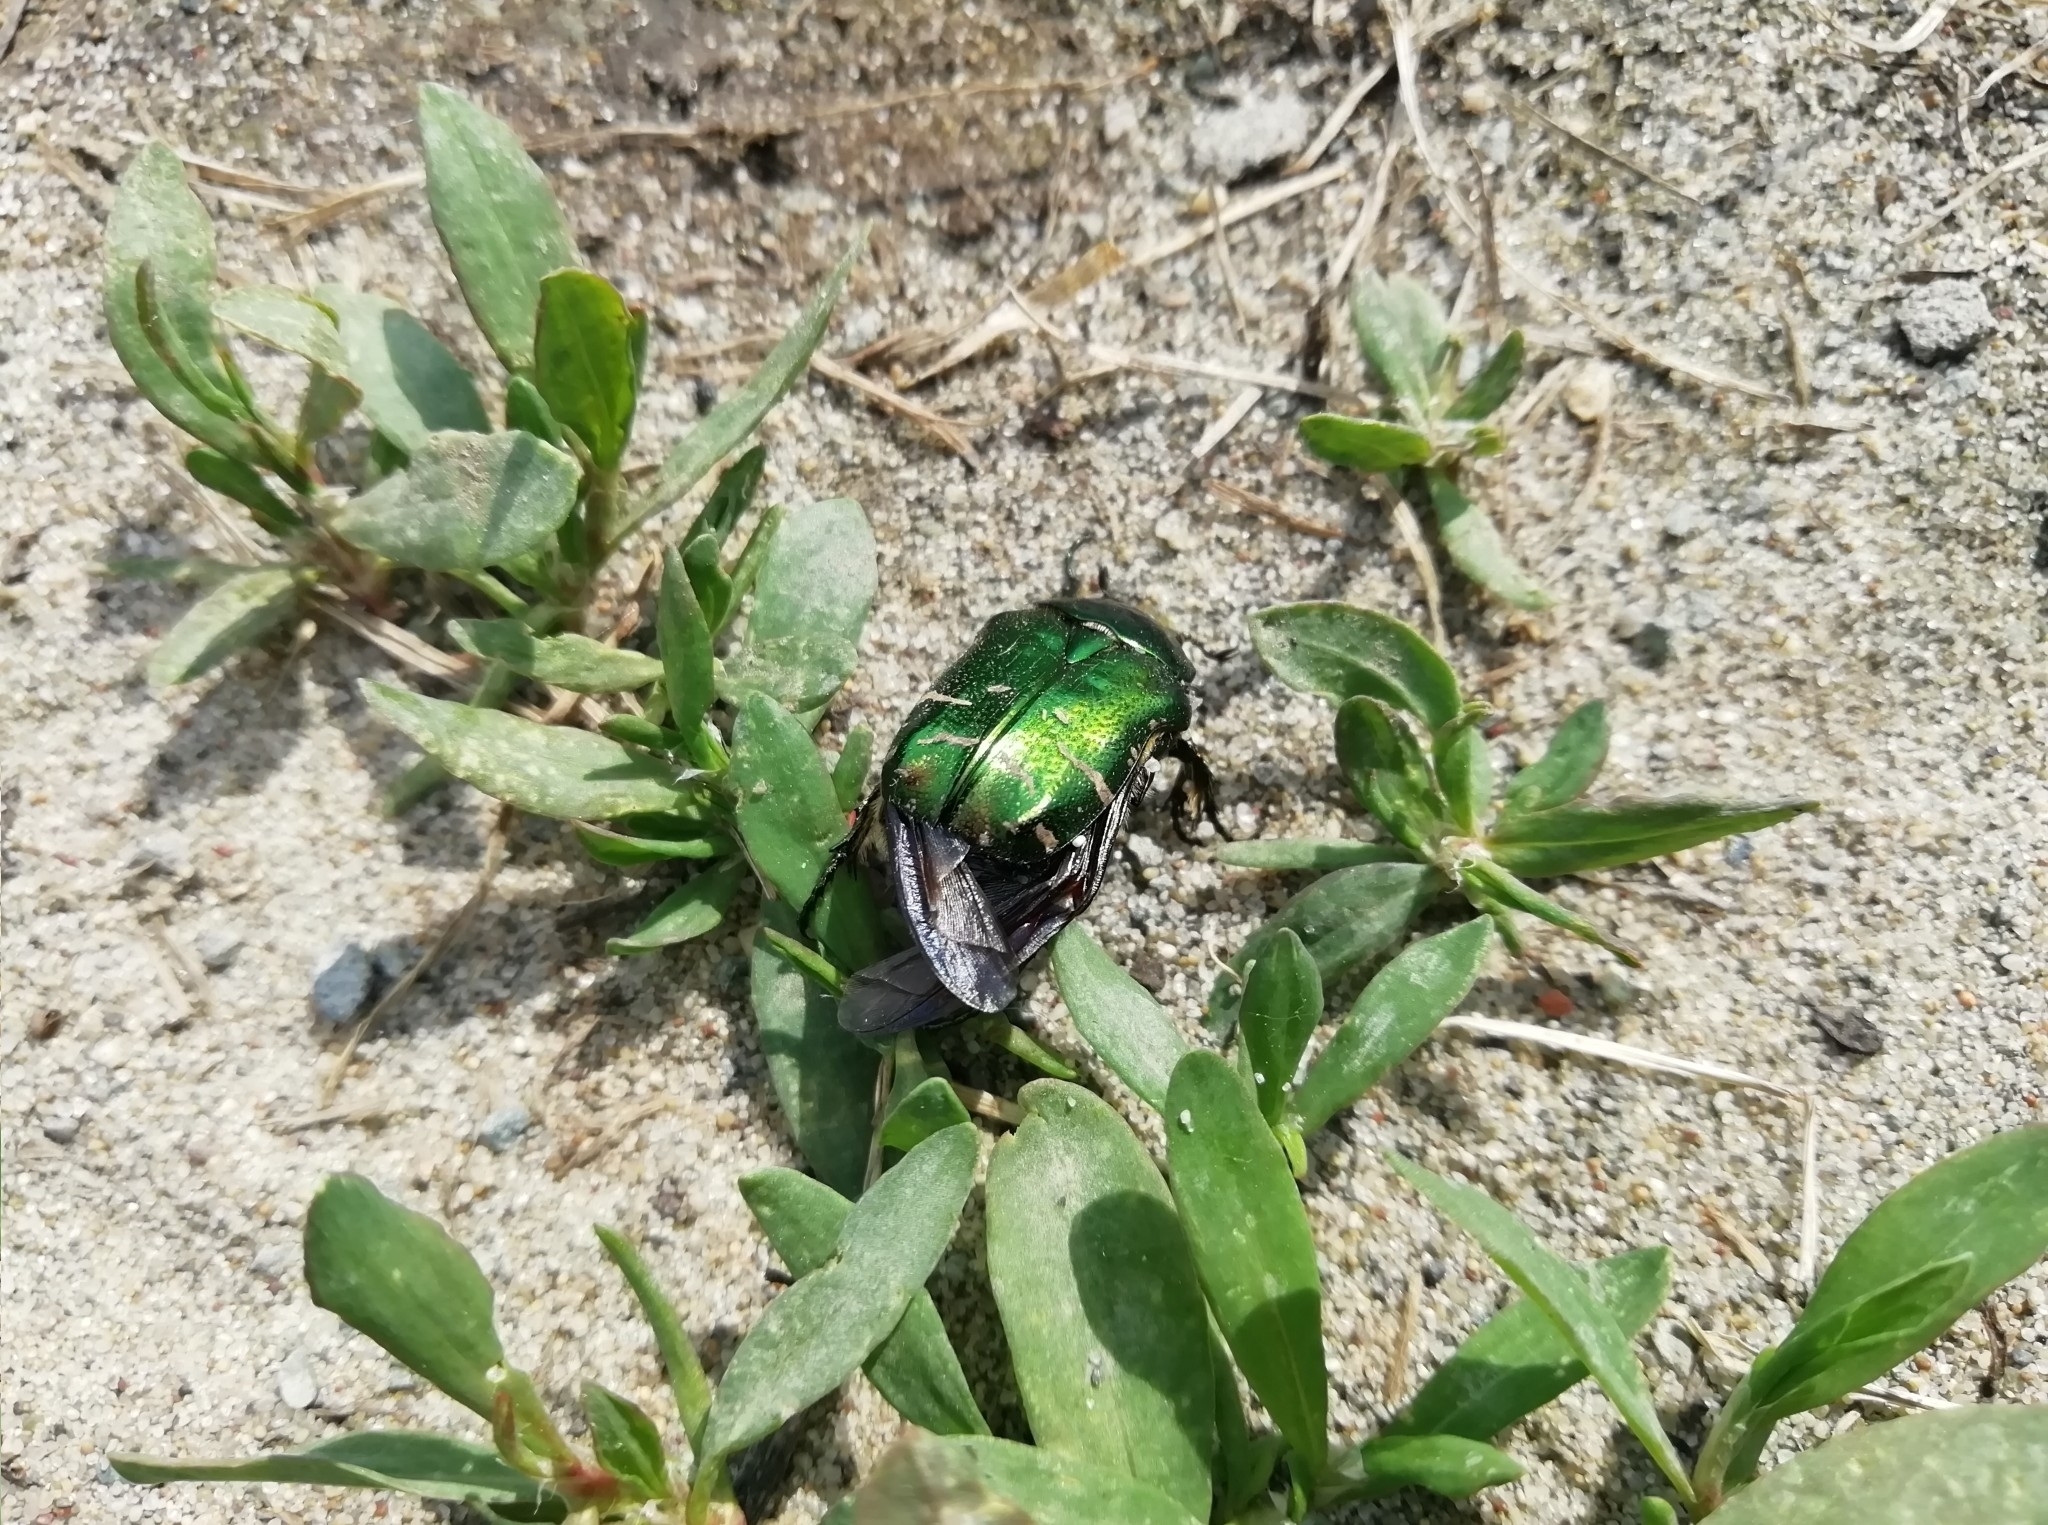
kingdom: Animalia
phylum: Arthropoda
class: Insecta
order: Coleoptera
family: Scarabaeidae
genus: Cetonia
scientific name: Cetonia aurata
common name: Rose chafer
